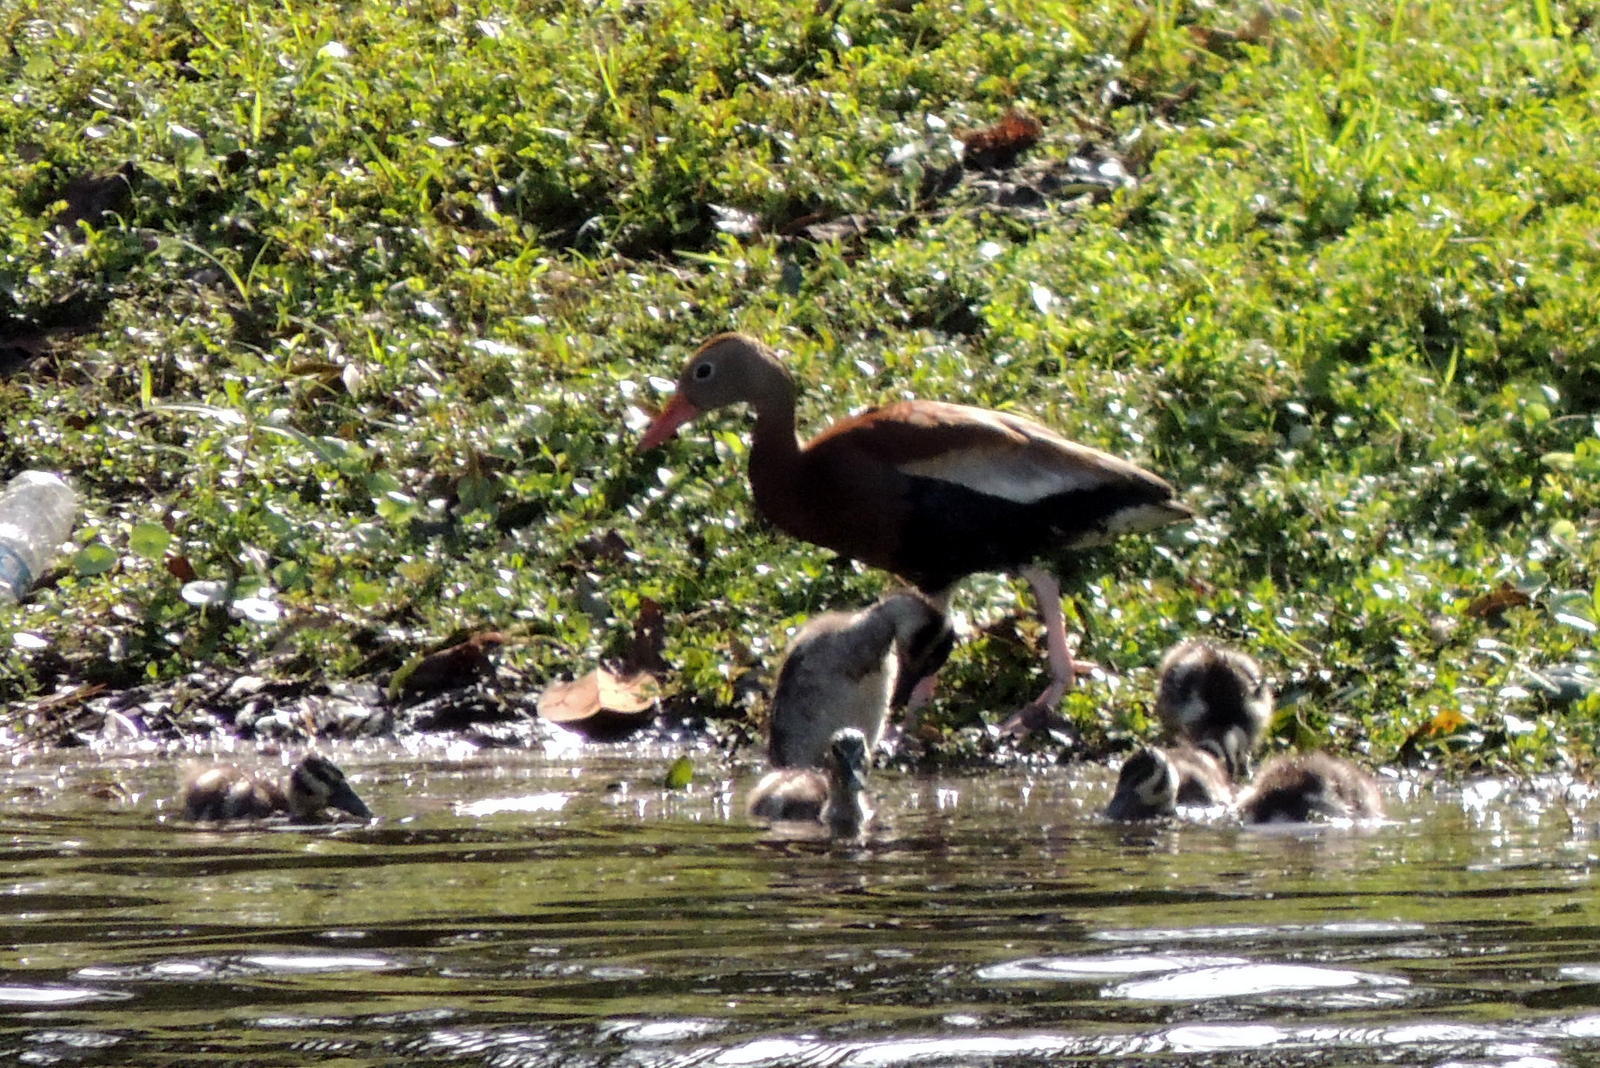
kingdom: Animalia
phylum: Chordata
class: Aves
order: Anseriformes
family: Anatidae
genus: Dendrocygna
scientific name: Dendrocygna autumnalis
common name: Black-bellied whistling duck
